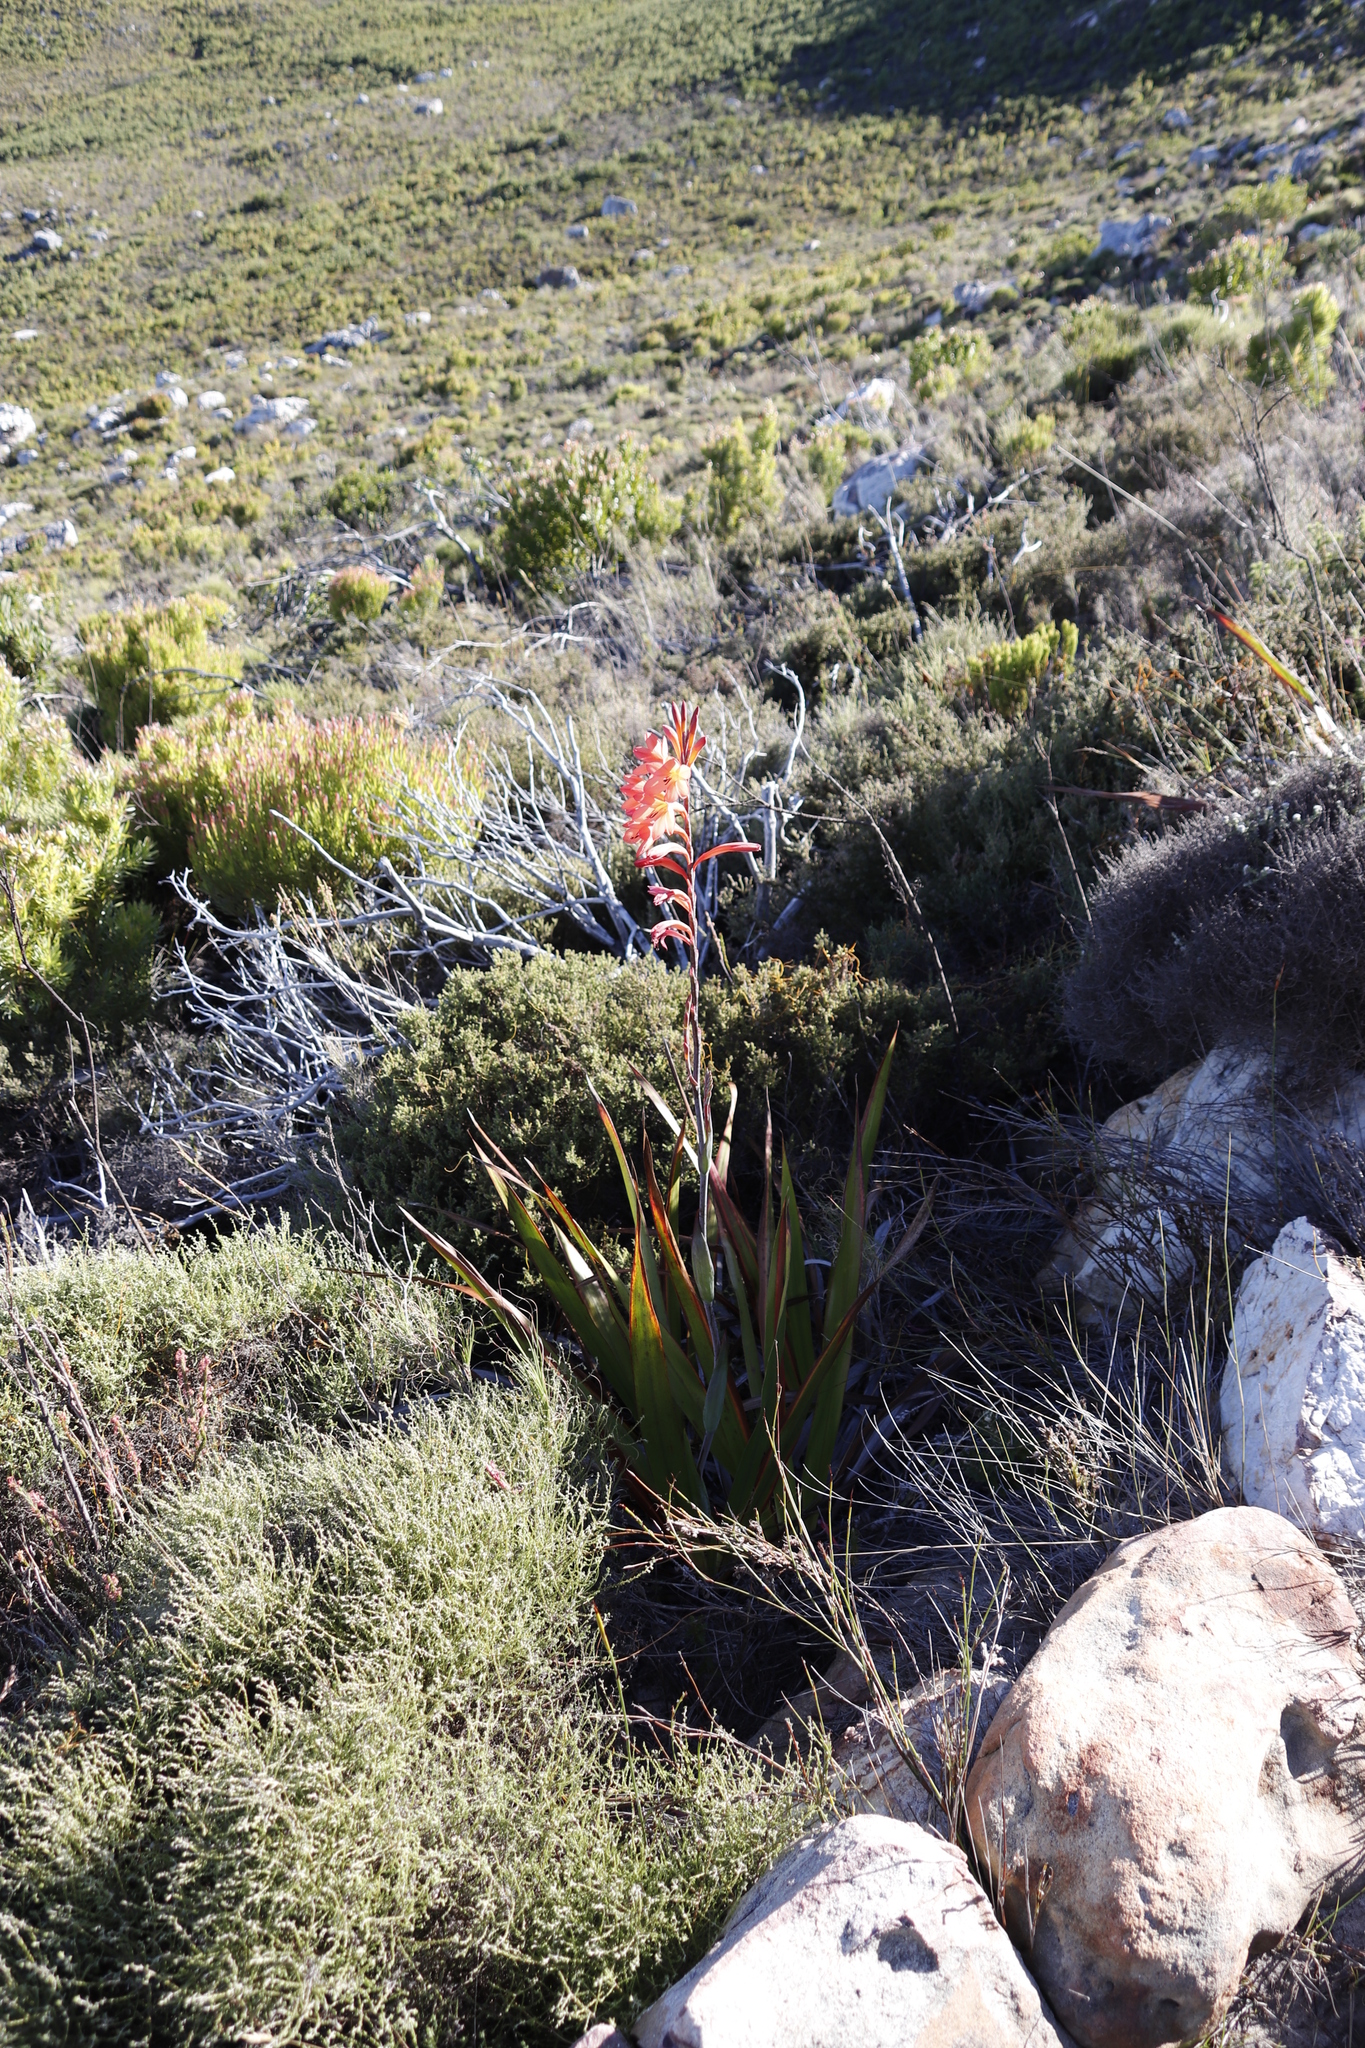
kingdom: Plantae
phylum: Tracheophyta
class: Liliopsida
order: Asparagales
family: Iridaceae
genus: Watsonia
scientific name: Watsonia tabularis
